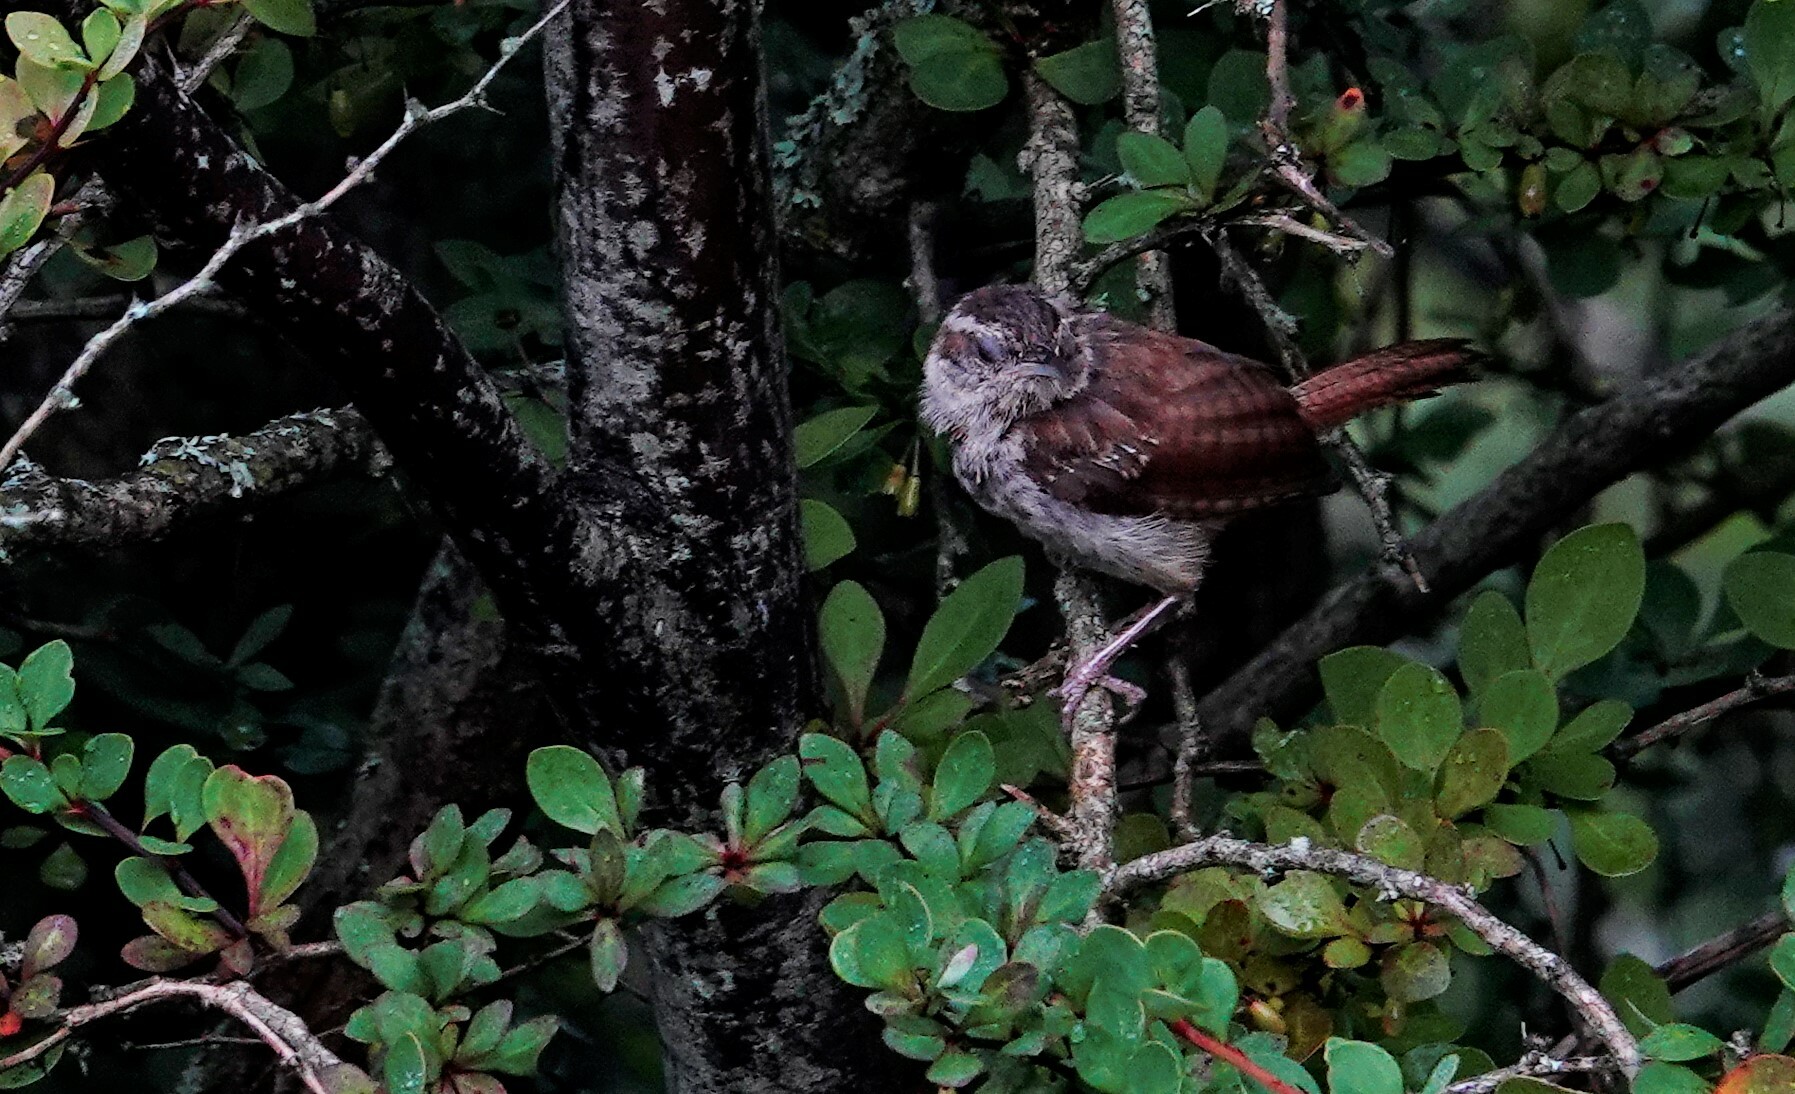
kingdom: Animalia
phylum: Chordata
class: Aves
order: Passeriformes
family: Troglodytidae
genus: Thryothorus
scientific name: Thryothorus ludovicianus
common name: Carolina wren
